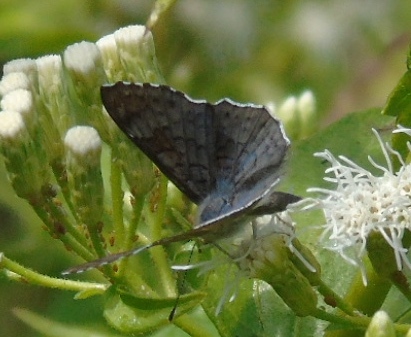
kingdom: Animalia
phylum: Arthropoda
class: Insecta
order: Lepidoptera
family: Riodinidae
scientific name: Riodinidae
